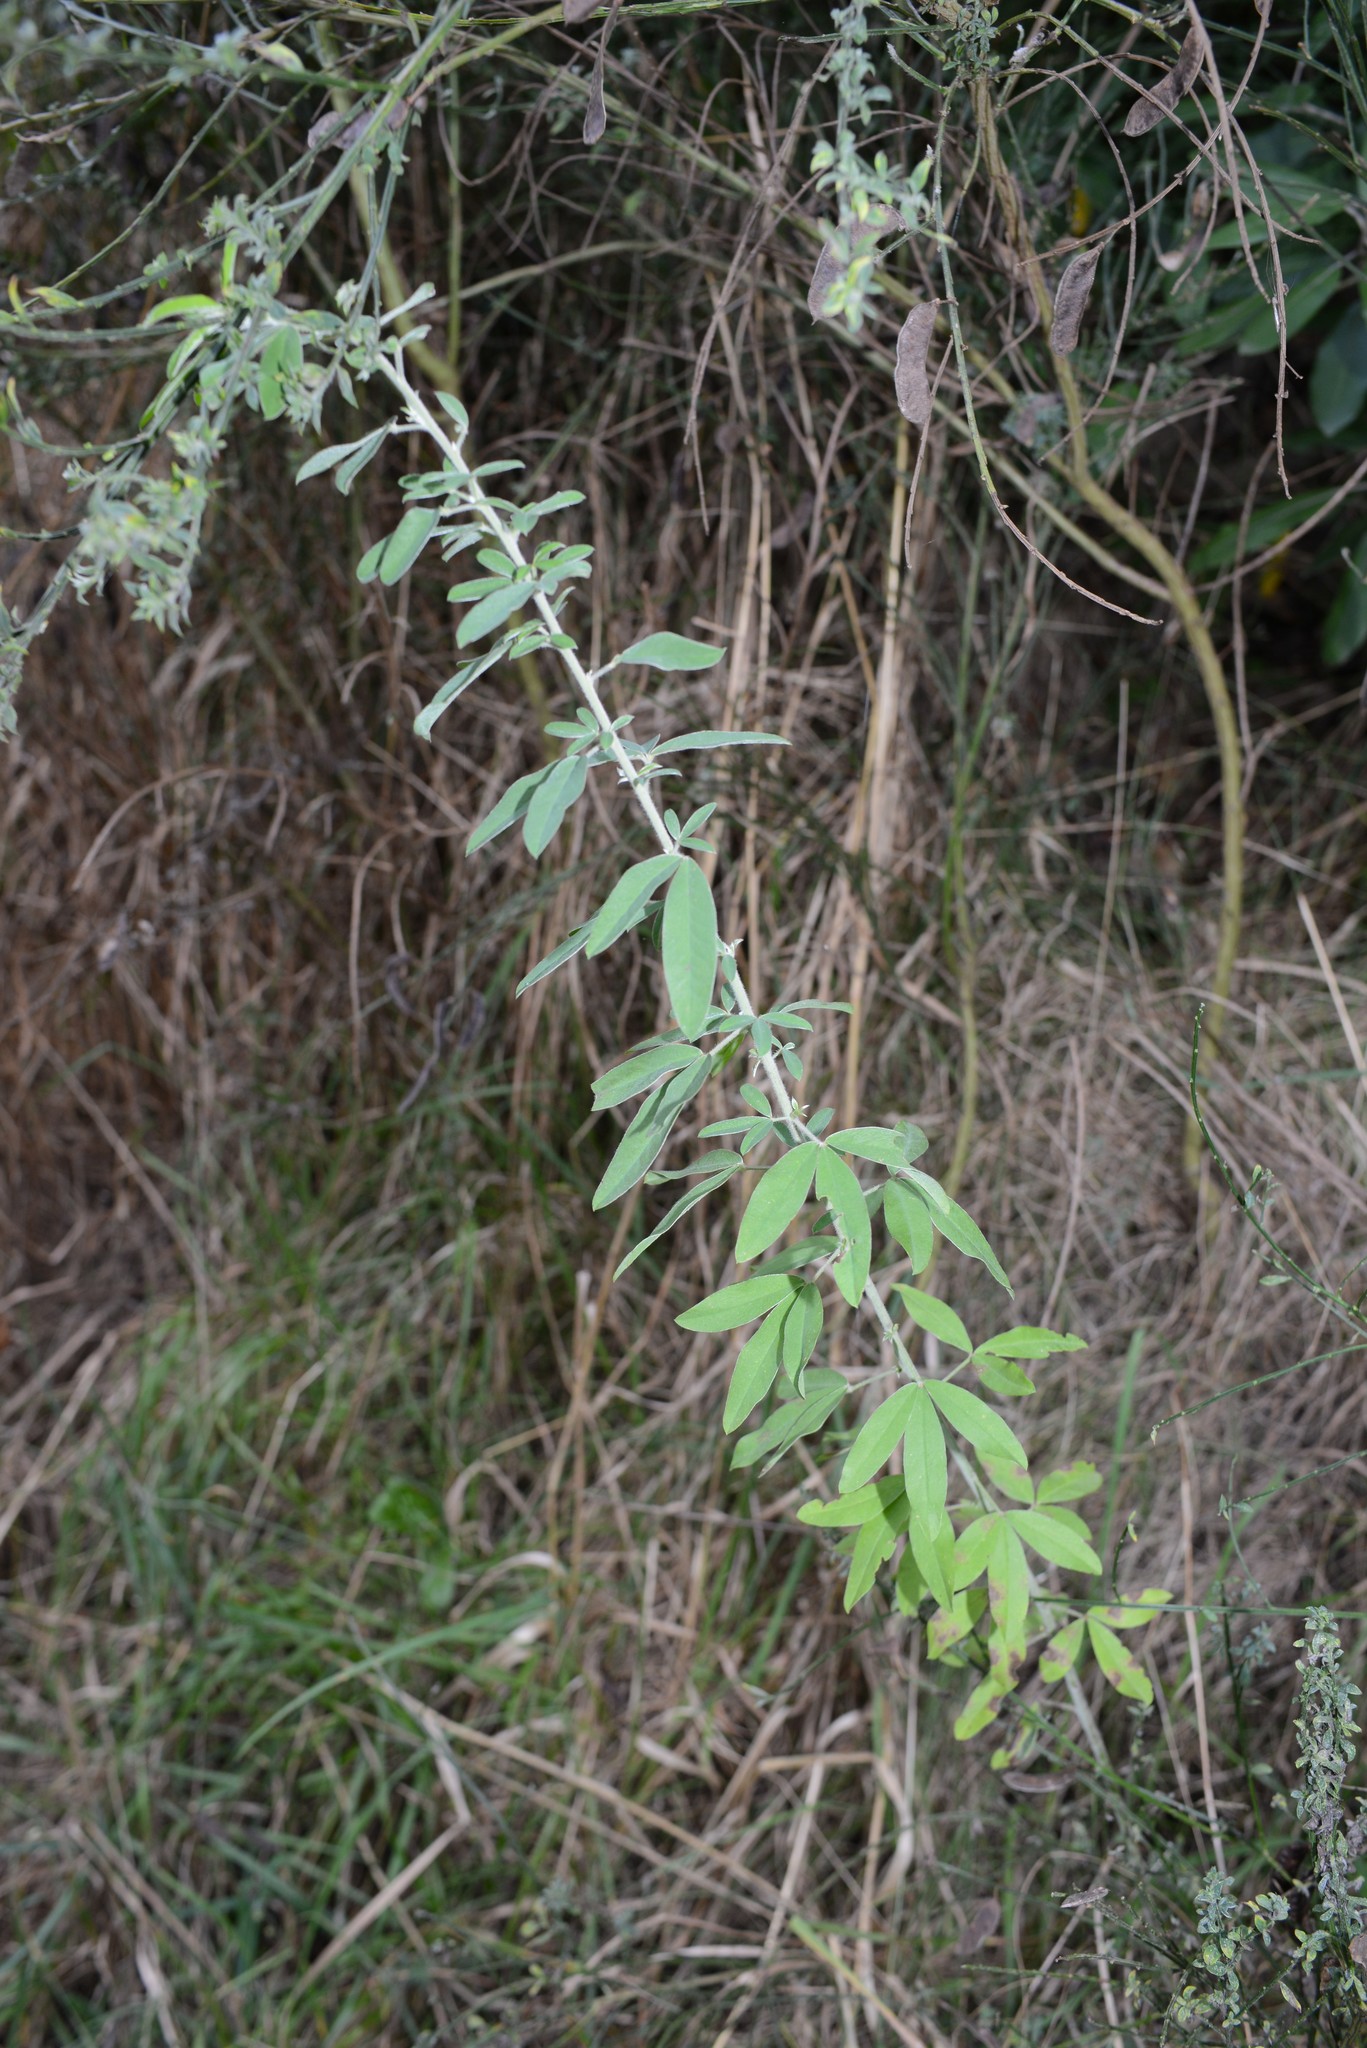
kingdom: Plantae
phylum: Tracheophyta
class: Magnoliopsida
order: Fabales
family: Fabaceae
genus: Chamaecytisus
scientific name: Chamaecytisus prolifer
